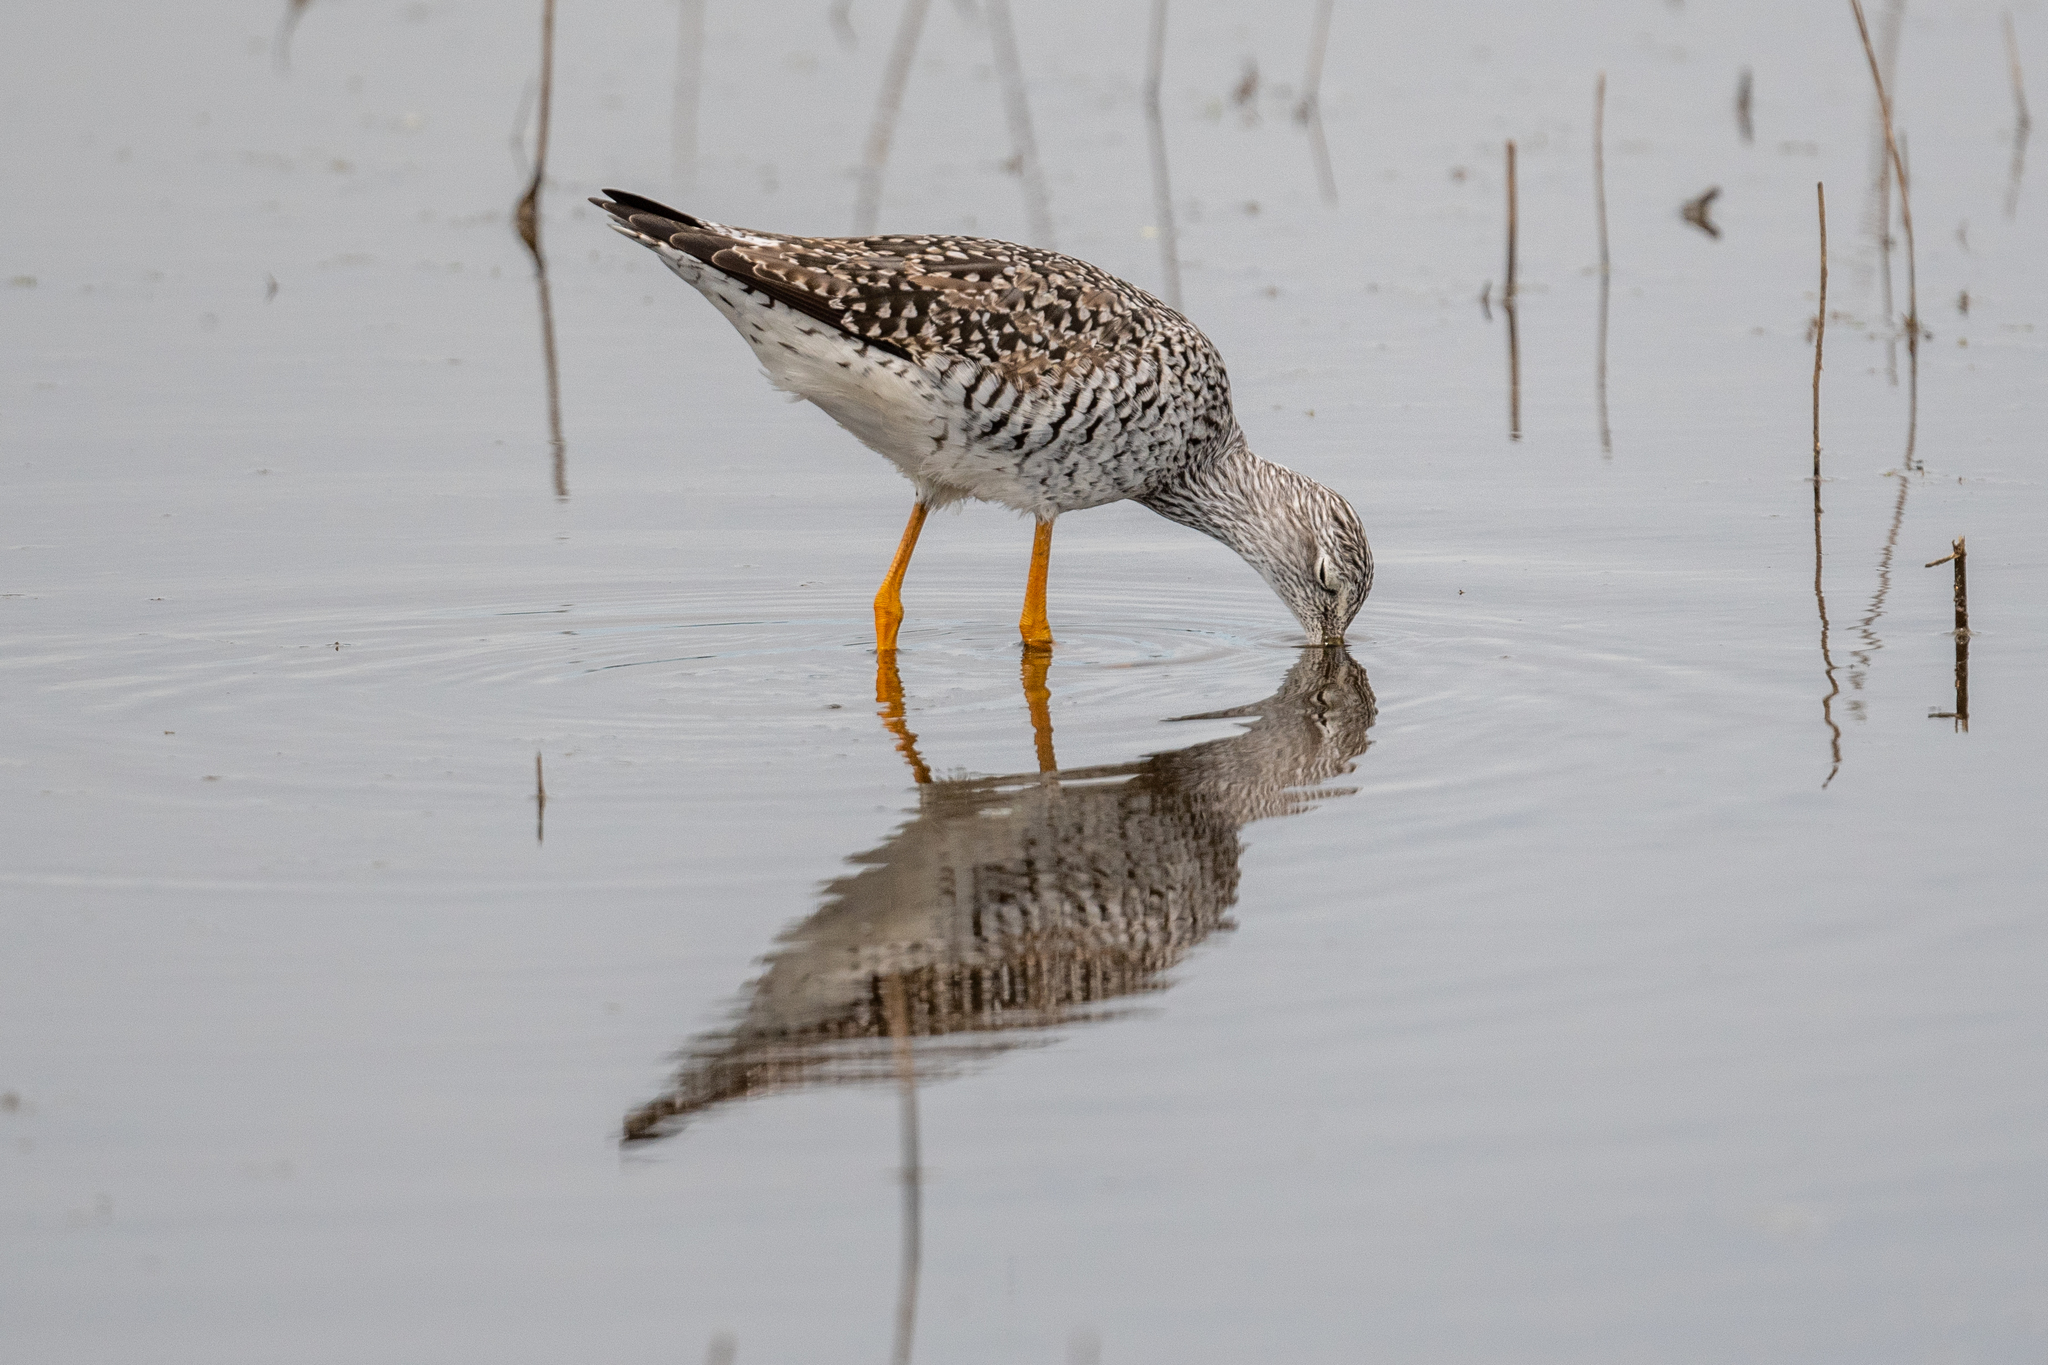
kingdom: Animalia
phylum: Chordata
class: Aves
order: Charadriiformes
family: Scolopacidae
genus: Tringa
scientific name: Tringa melanoleuca
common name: Greater yellowlegs
